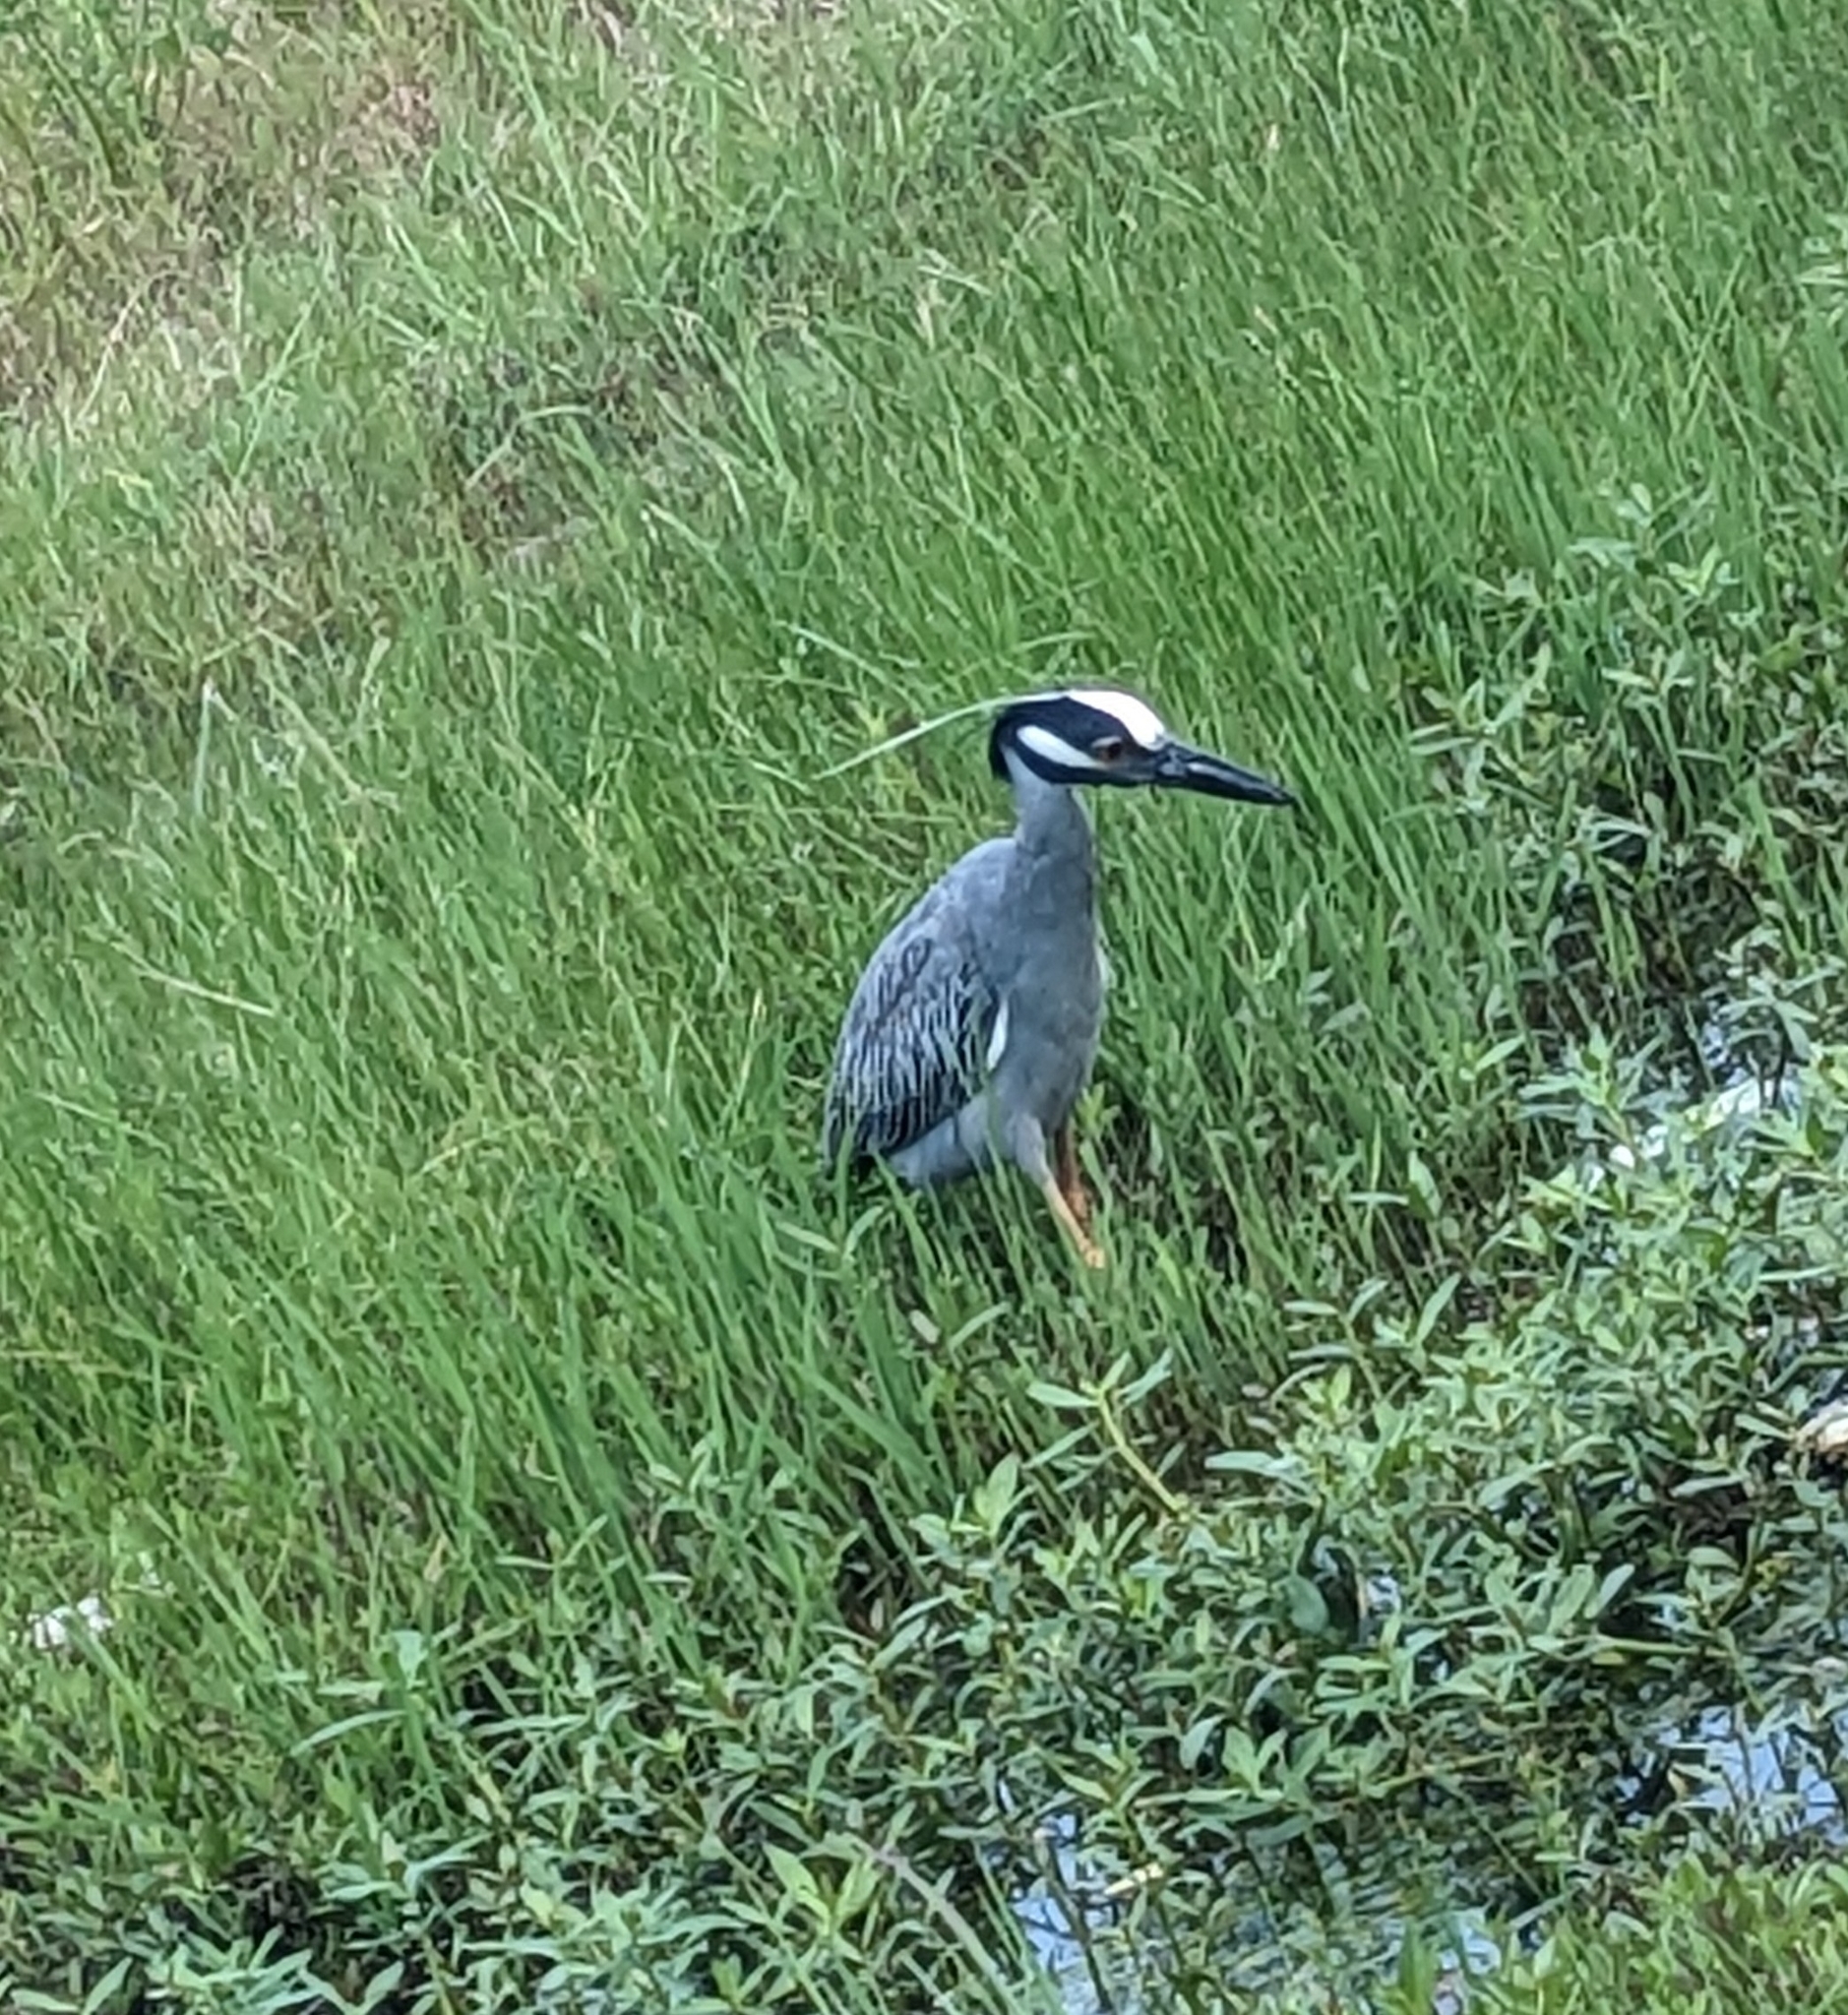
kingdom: Animalia
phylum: Chordata
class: Aves
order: Pelecaniformes
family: Ardeidae
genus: Nyctanassa
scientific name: Nyctanassa violacea
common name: Yellow-crowned night heron
